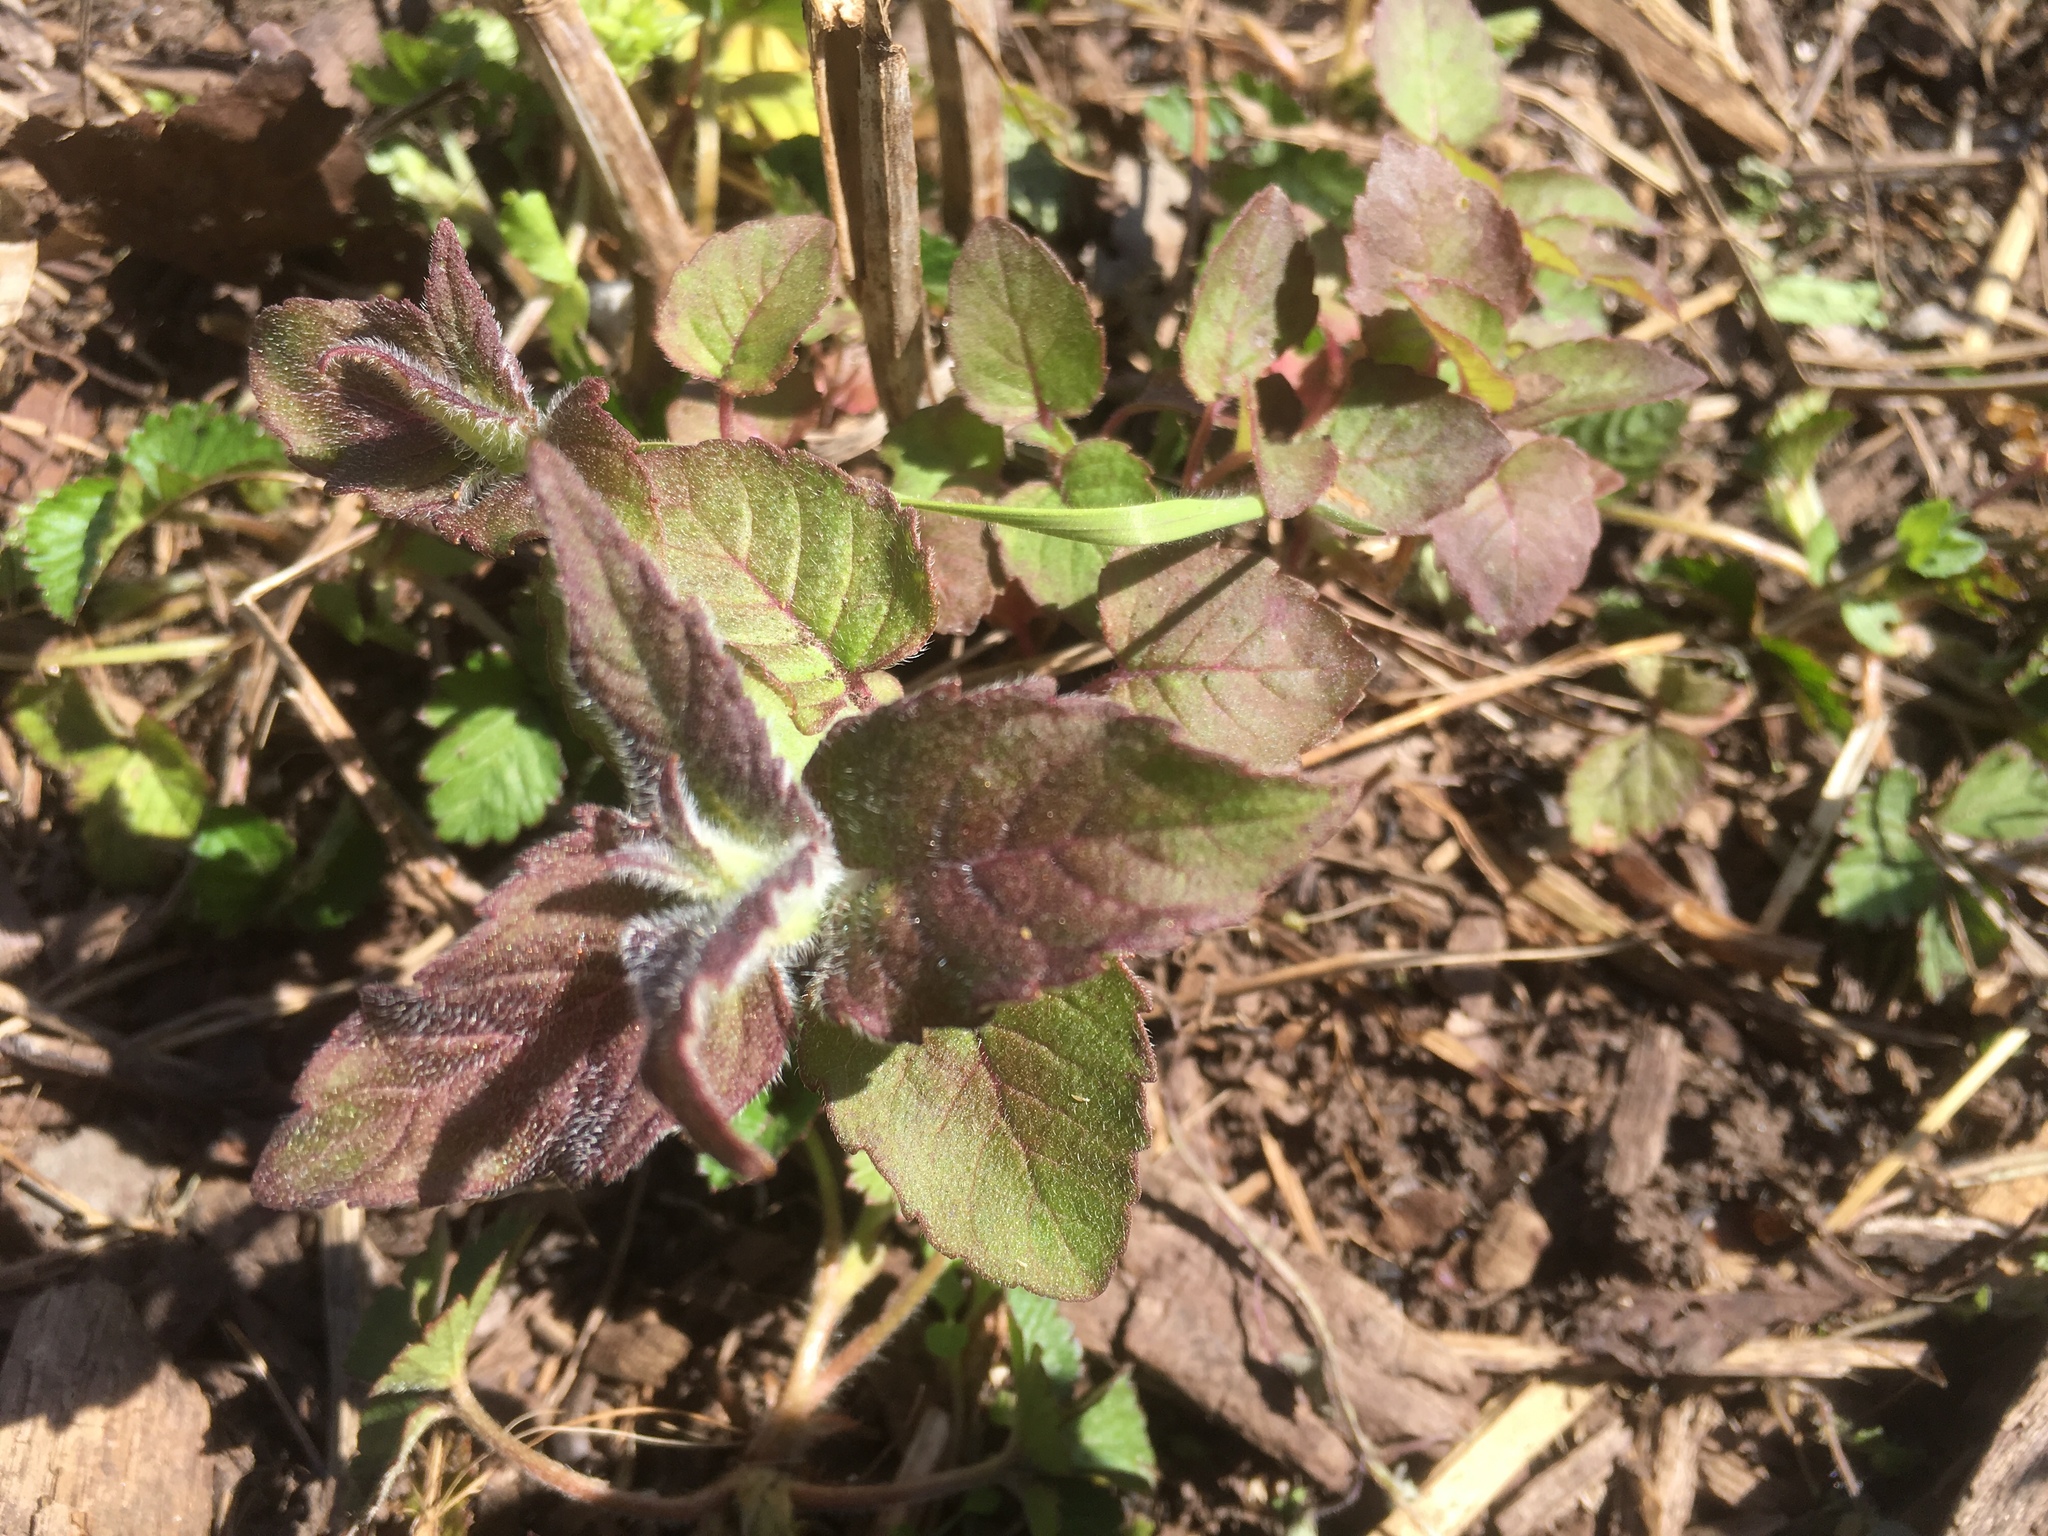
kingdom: Plantae
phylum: Tracheophyta
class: Magnoliopsida
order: Lamiales
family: Lamiaceae
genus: Monarda
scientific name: Monarda fistulosa
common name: Purple beebalm
